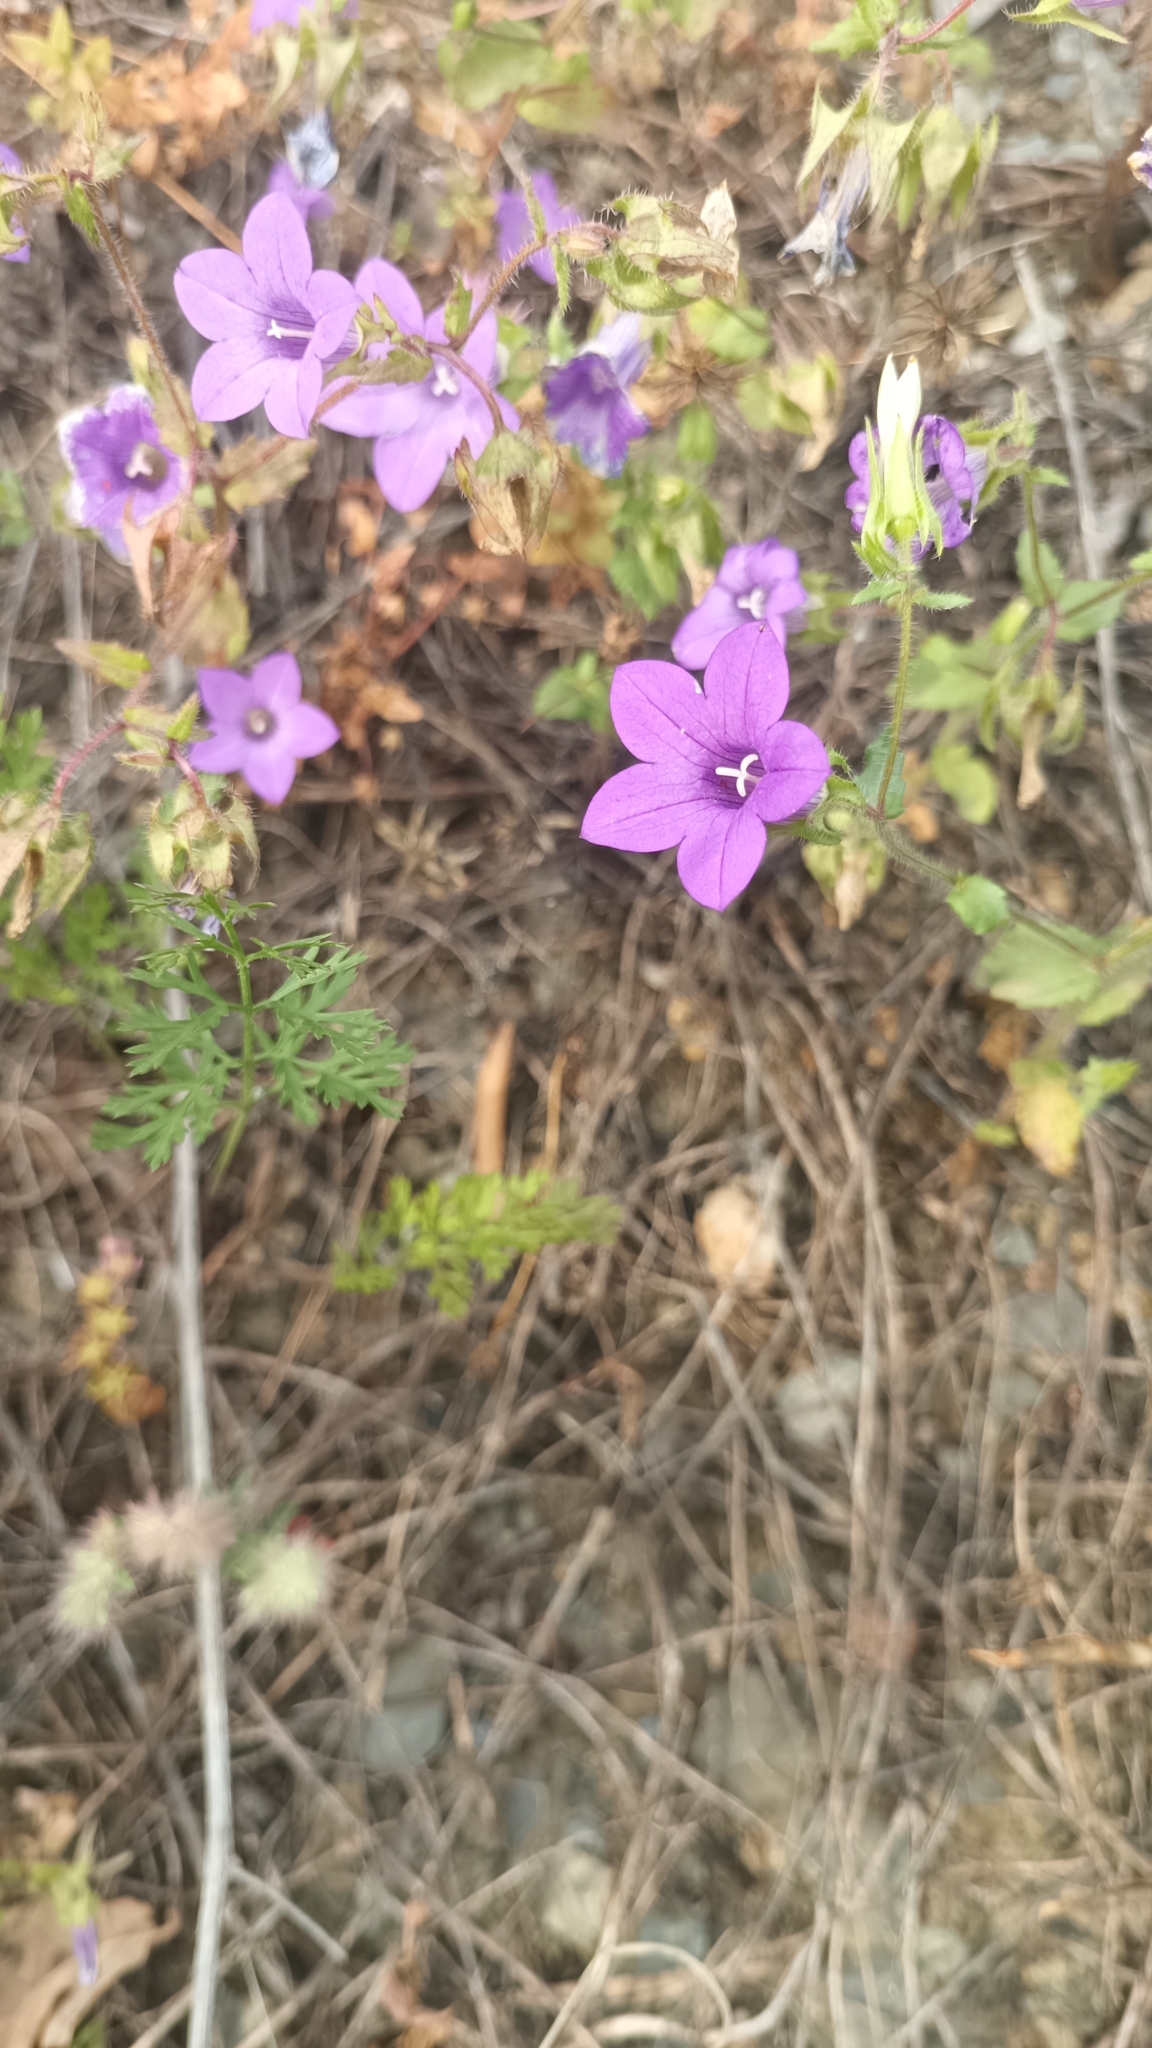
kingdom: Plantae
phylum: Tracheophyta
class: Magnoliopsida
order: Asterales
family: Campanulaceae
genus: Campanula
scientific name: Campanula dichotoma
